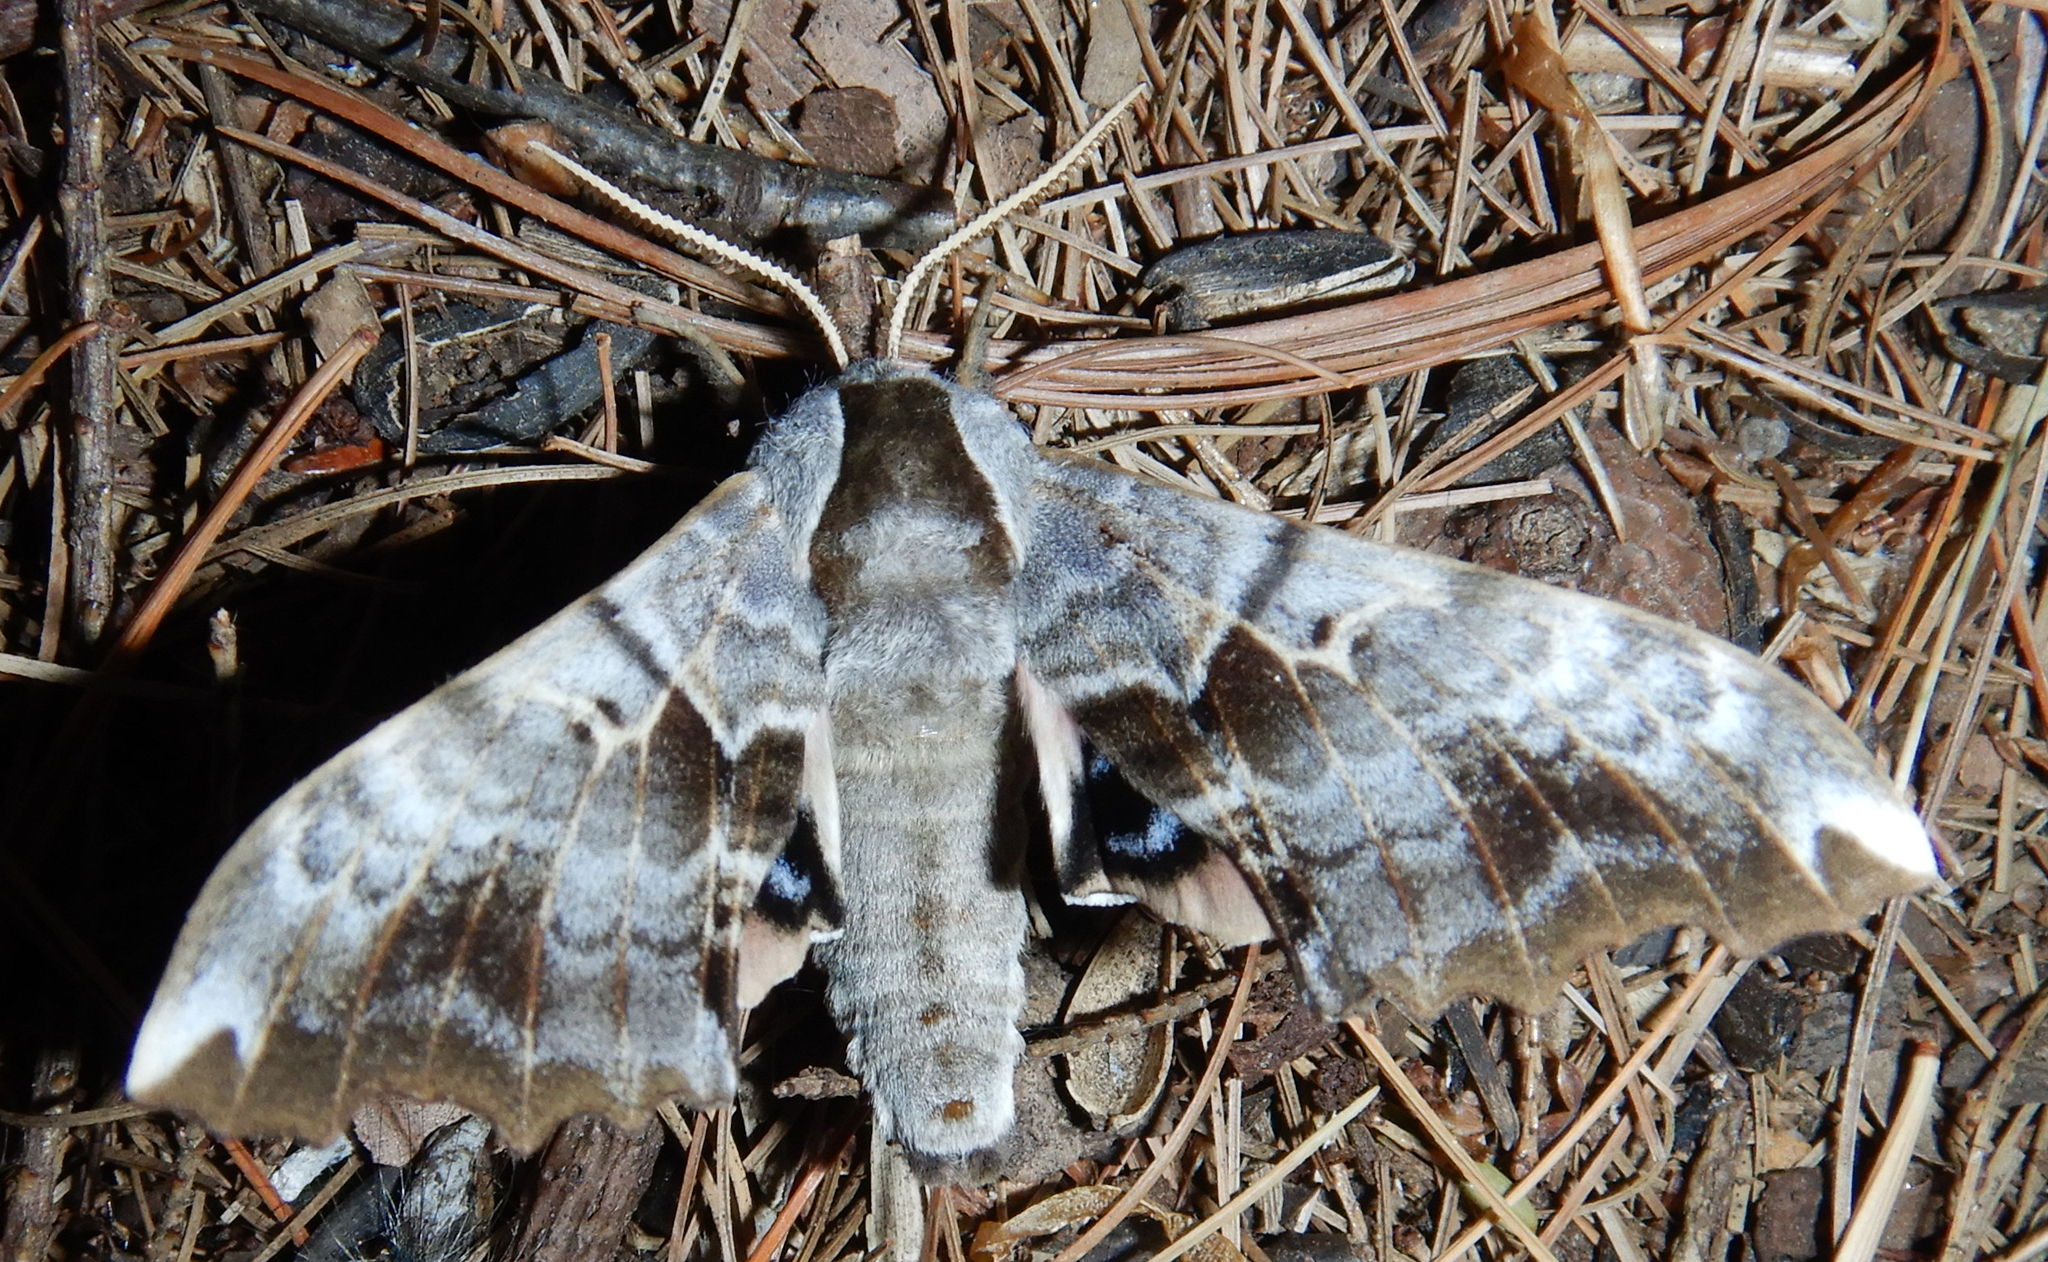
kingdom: Animalia
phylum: Arthropoda
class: Insecta
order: Lepidoptera
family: Sphingidae
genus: Smerinthus
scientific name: Smerinthus cerisyi
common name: Cerisy's sphinx moth
